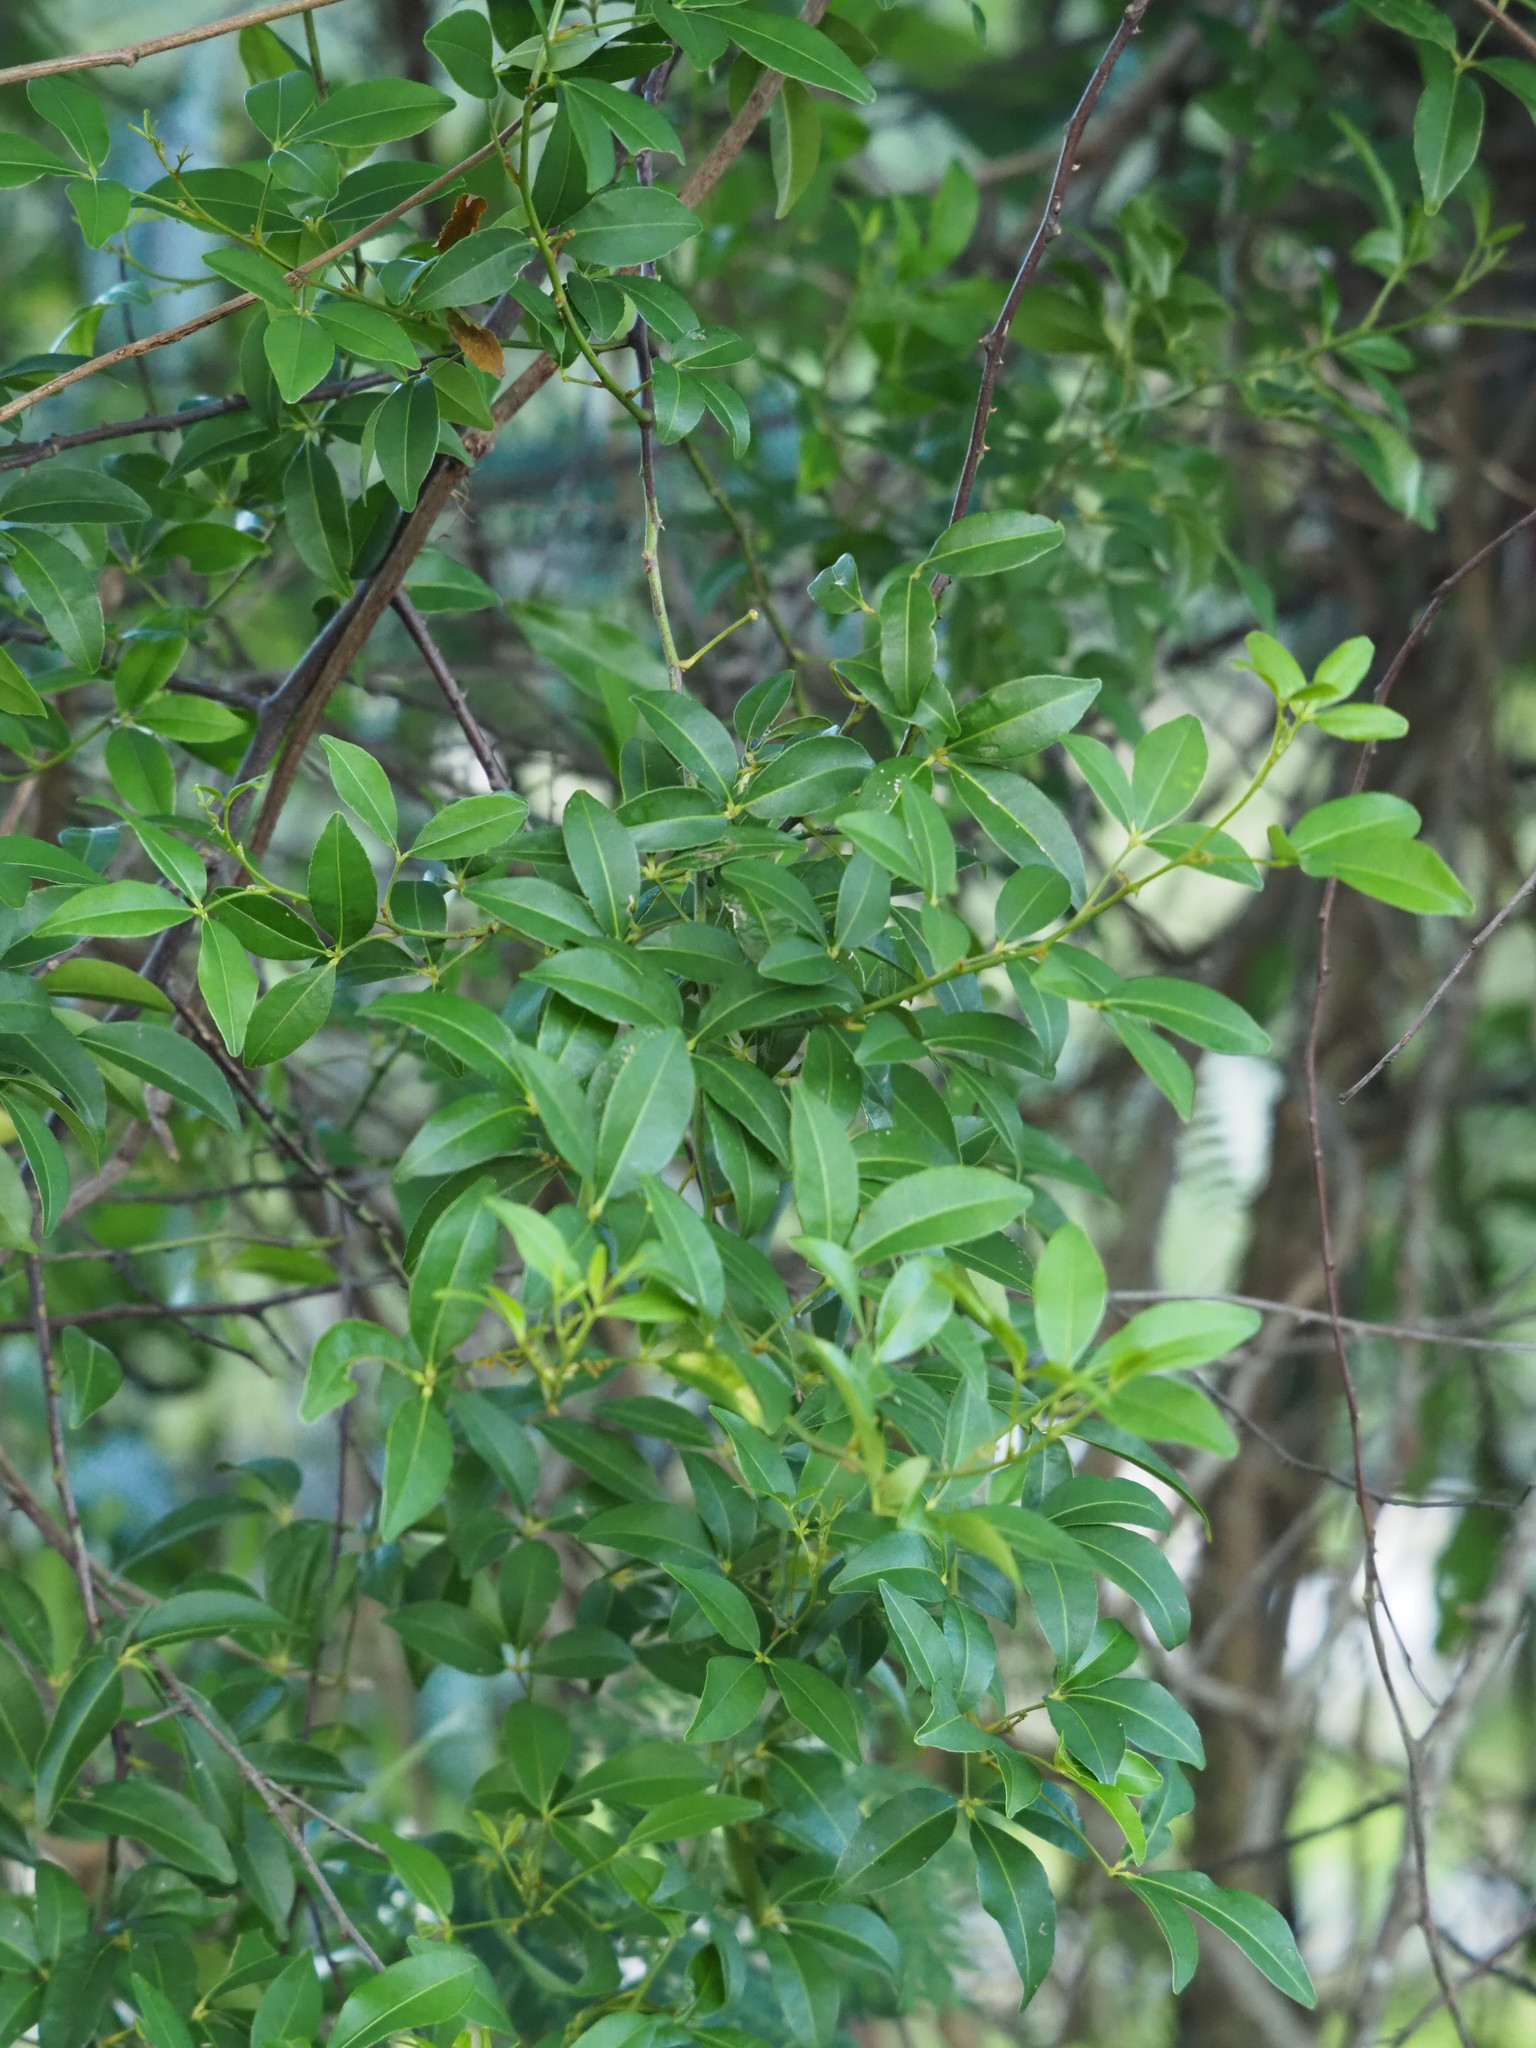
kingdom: Plantae
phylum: Tracheophyta
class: Magnoliopsida
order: Sapindales
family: Rutaceae
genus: Zanthoxylum
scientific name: Zanthoxylum asiaticum
